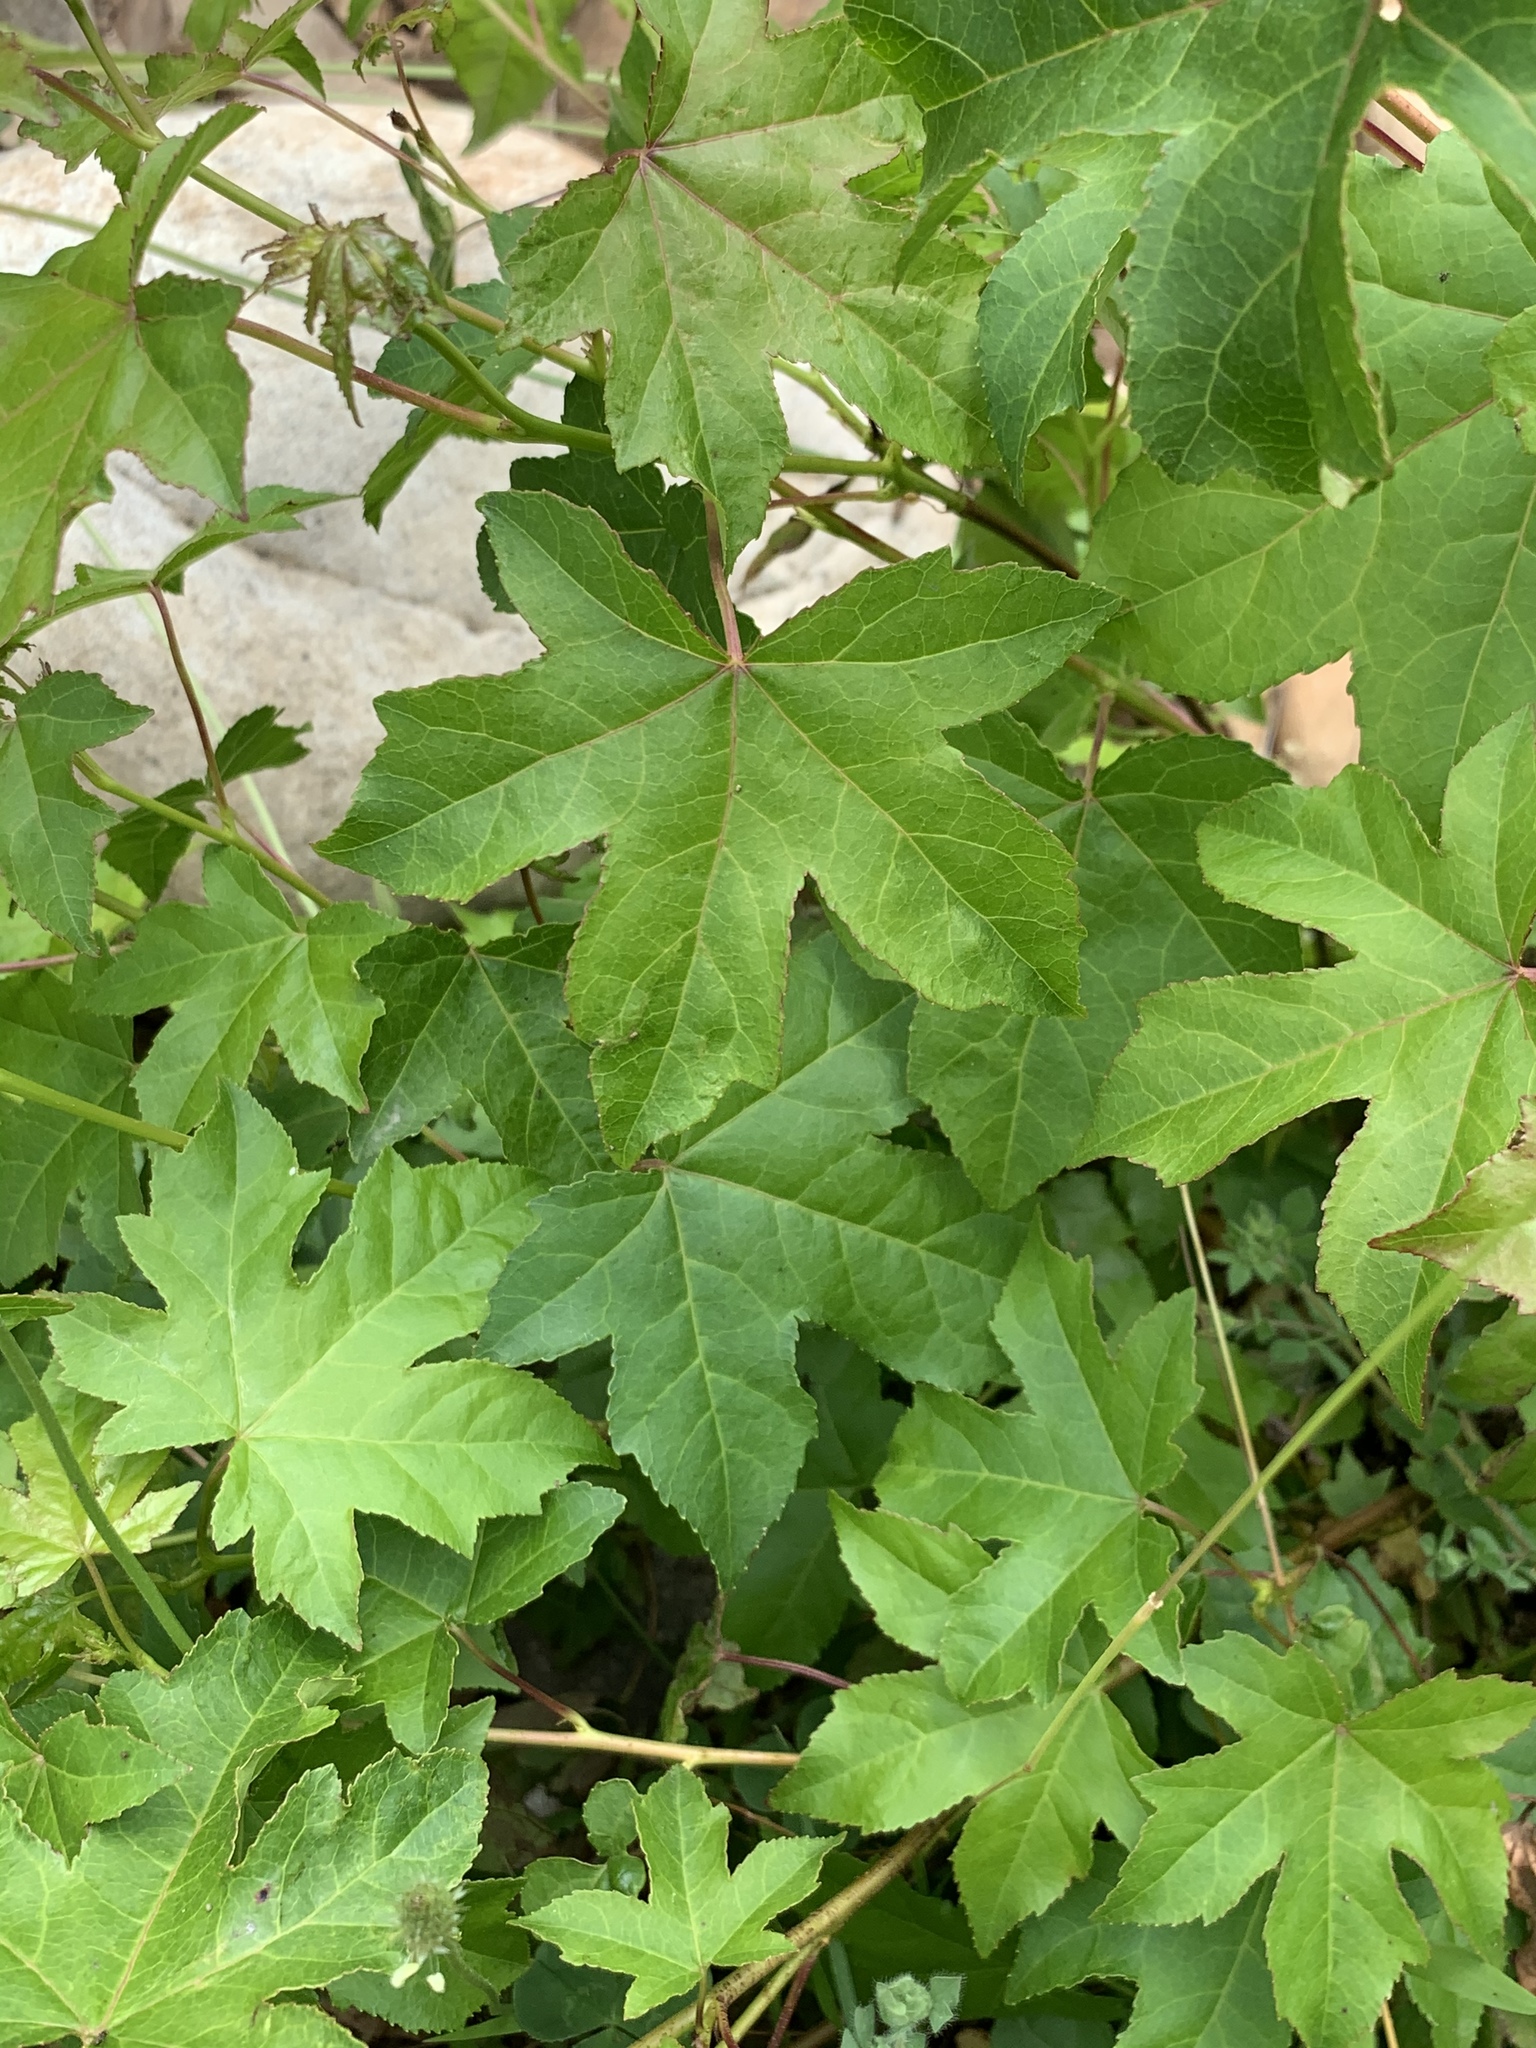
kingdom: Plantae
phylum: Tracheophyta
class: Magnoliopsida
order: Saxifragales
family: Altingiaceae
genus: Liquidambar
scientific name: Liquidambar styraciflua
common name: Sweet gum
